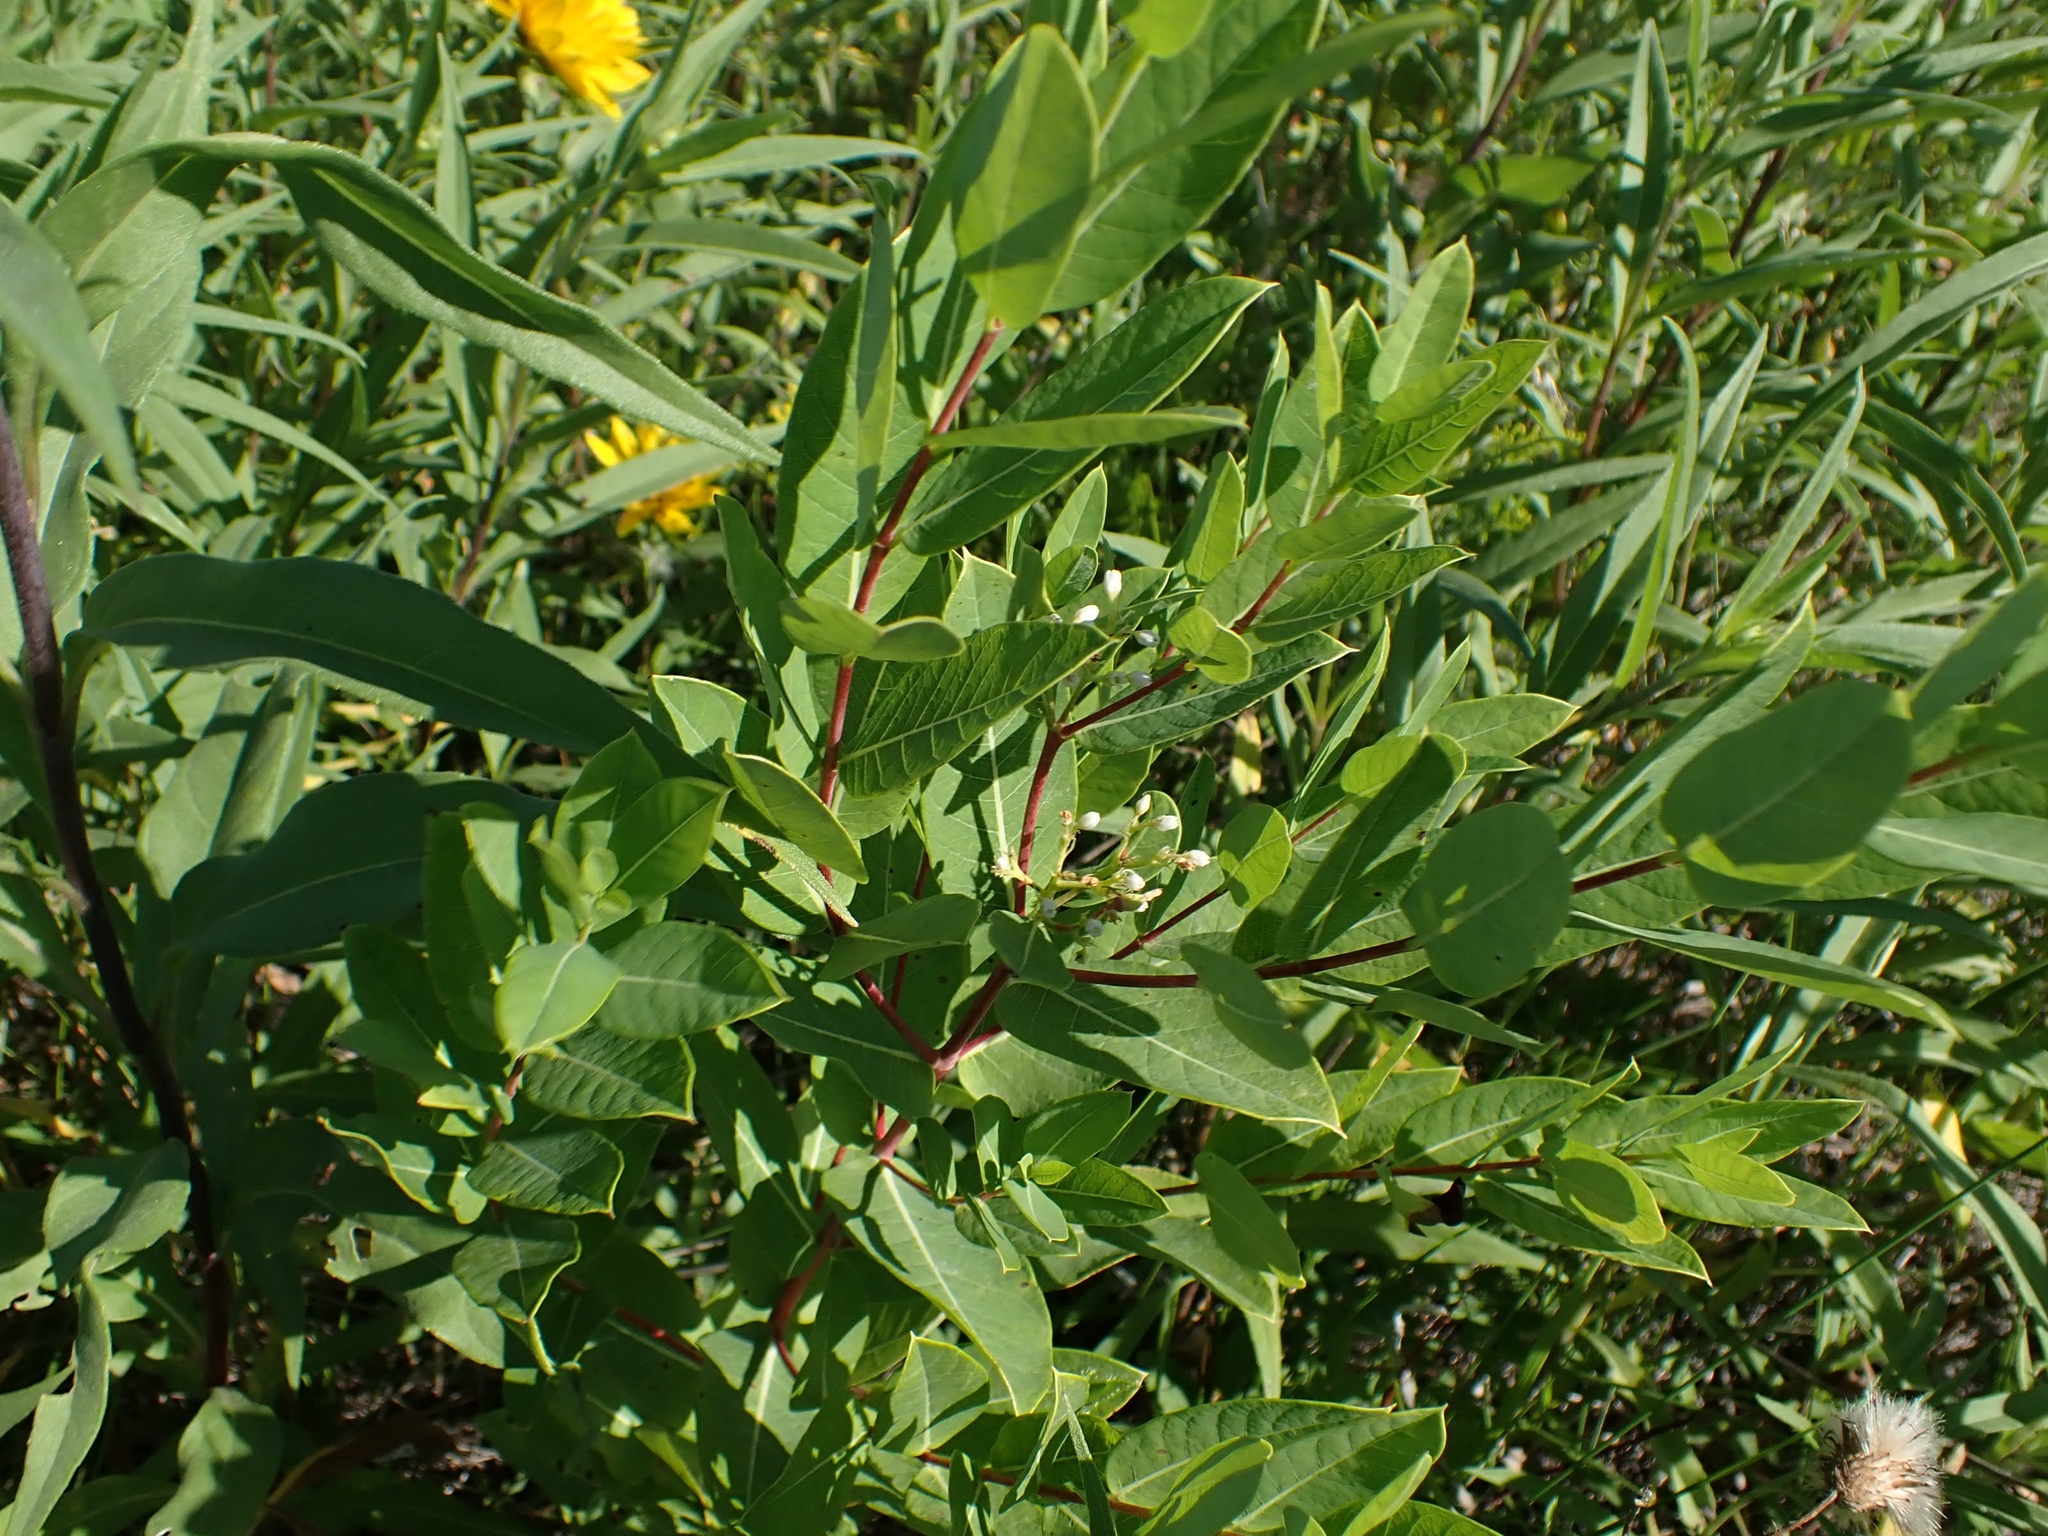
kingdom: Plantae
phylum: Tracheophyta
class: Magnoliopsida
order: Gentianales
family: Apocynaceae
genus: Apocynum
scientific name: Apocynum cannabinum
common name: Hemp dogbane
